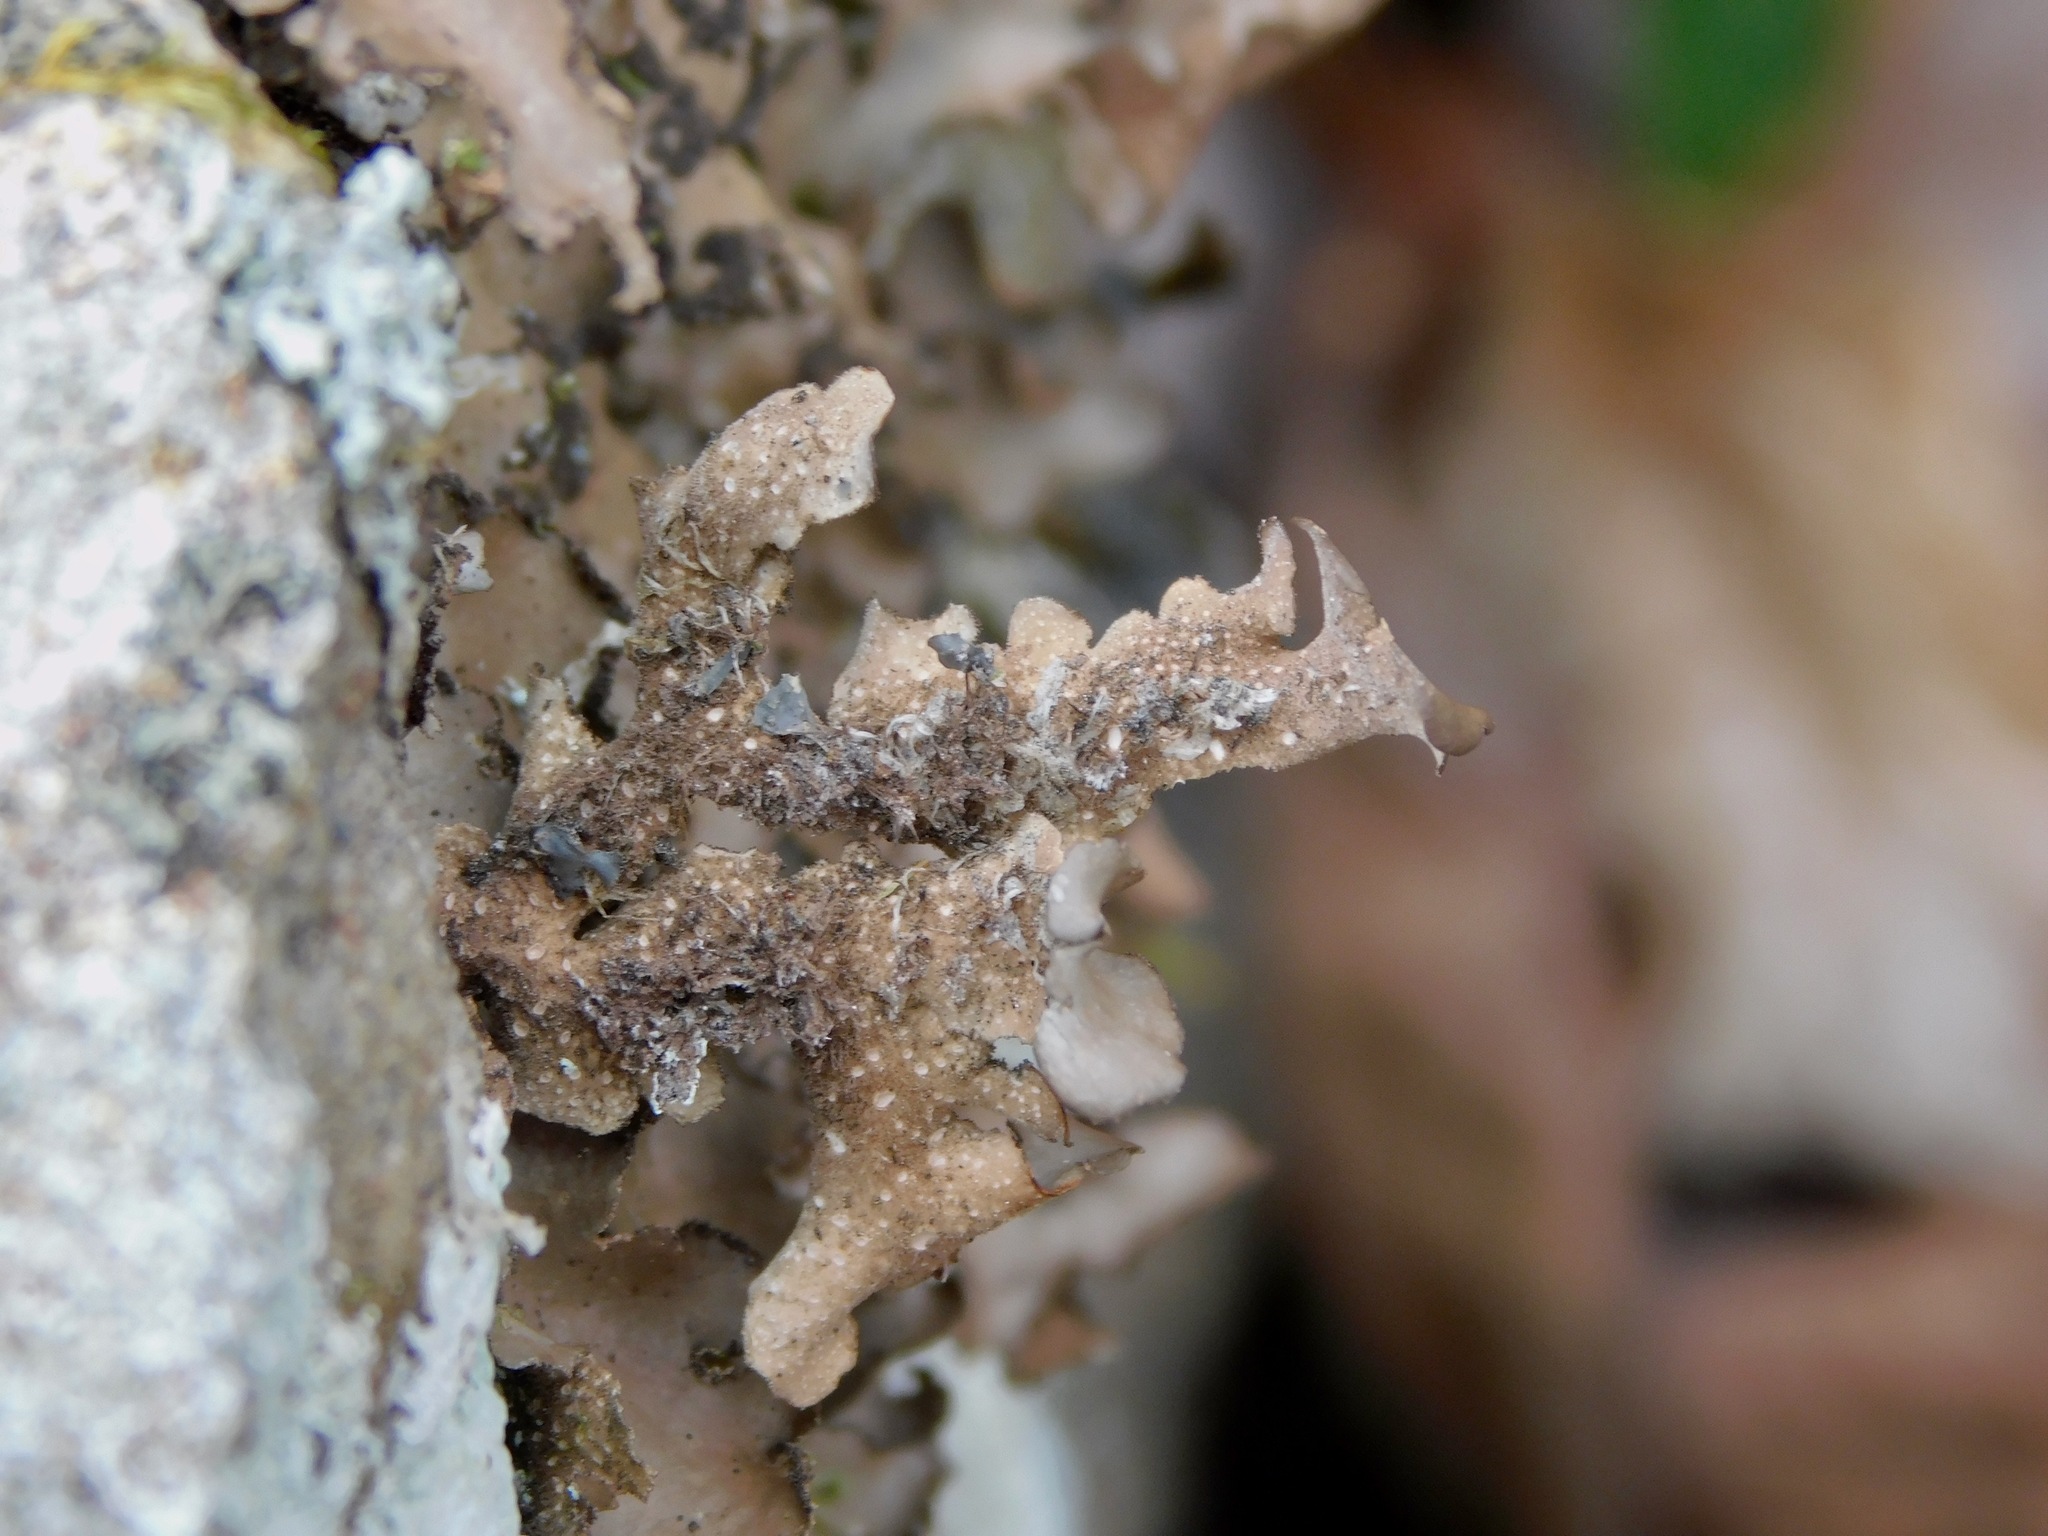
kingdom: Fungi
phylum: Ascomycota
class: Lecanoromycetes
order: Peltigerales
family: Lobariaceae
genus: Sticta
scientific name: Sticta beauvoisii
